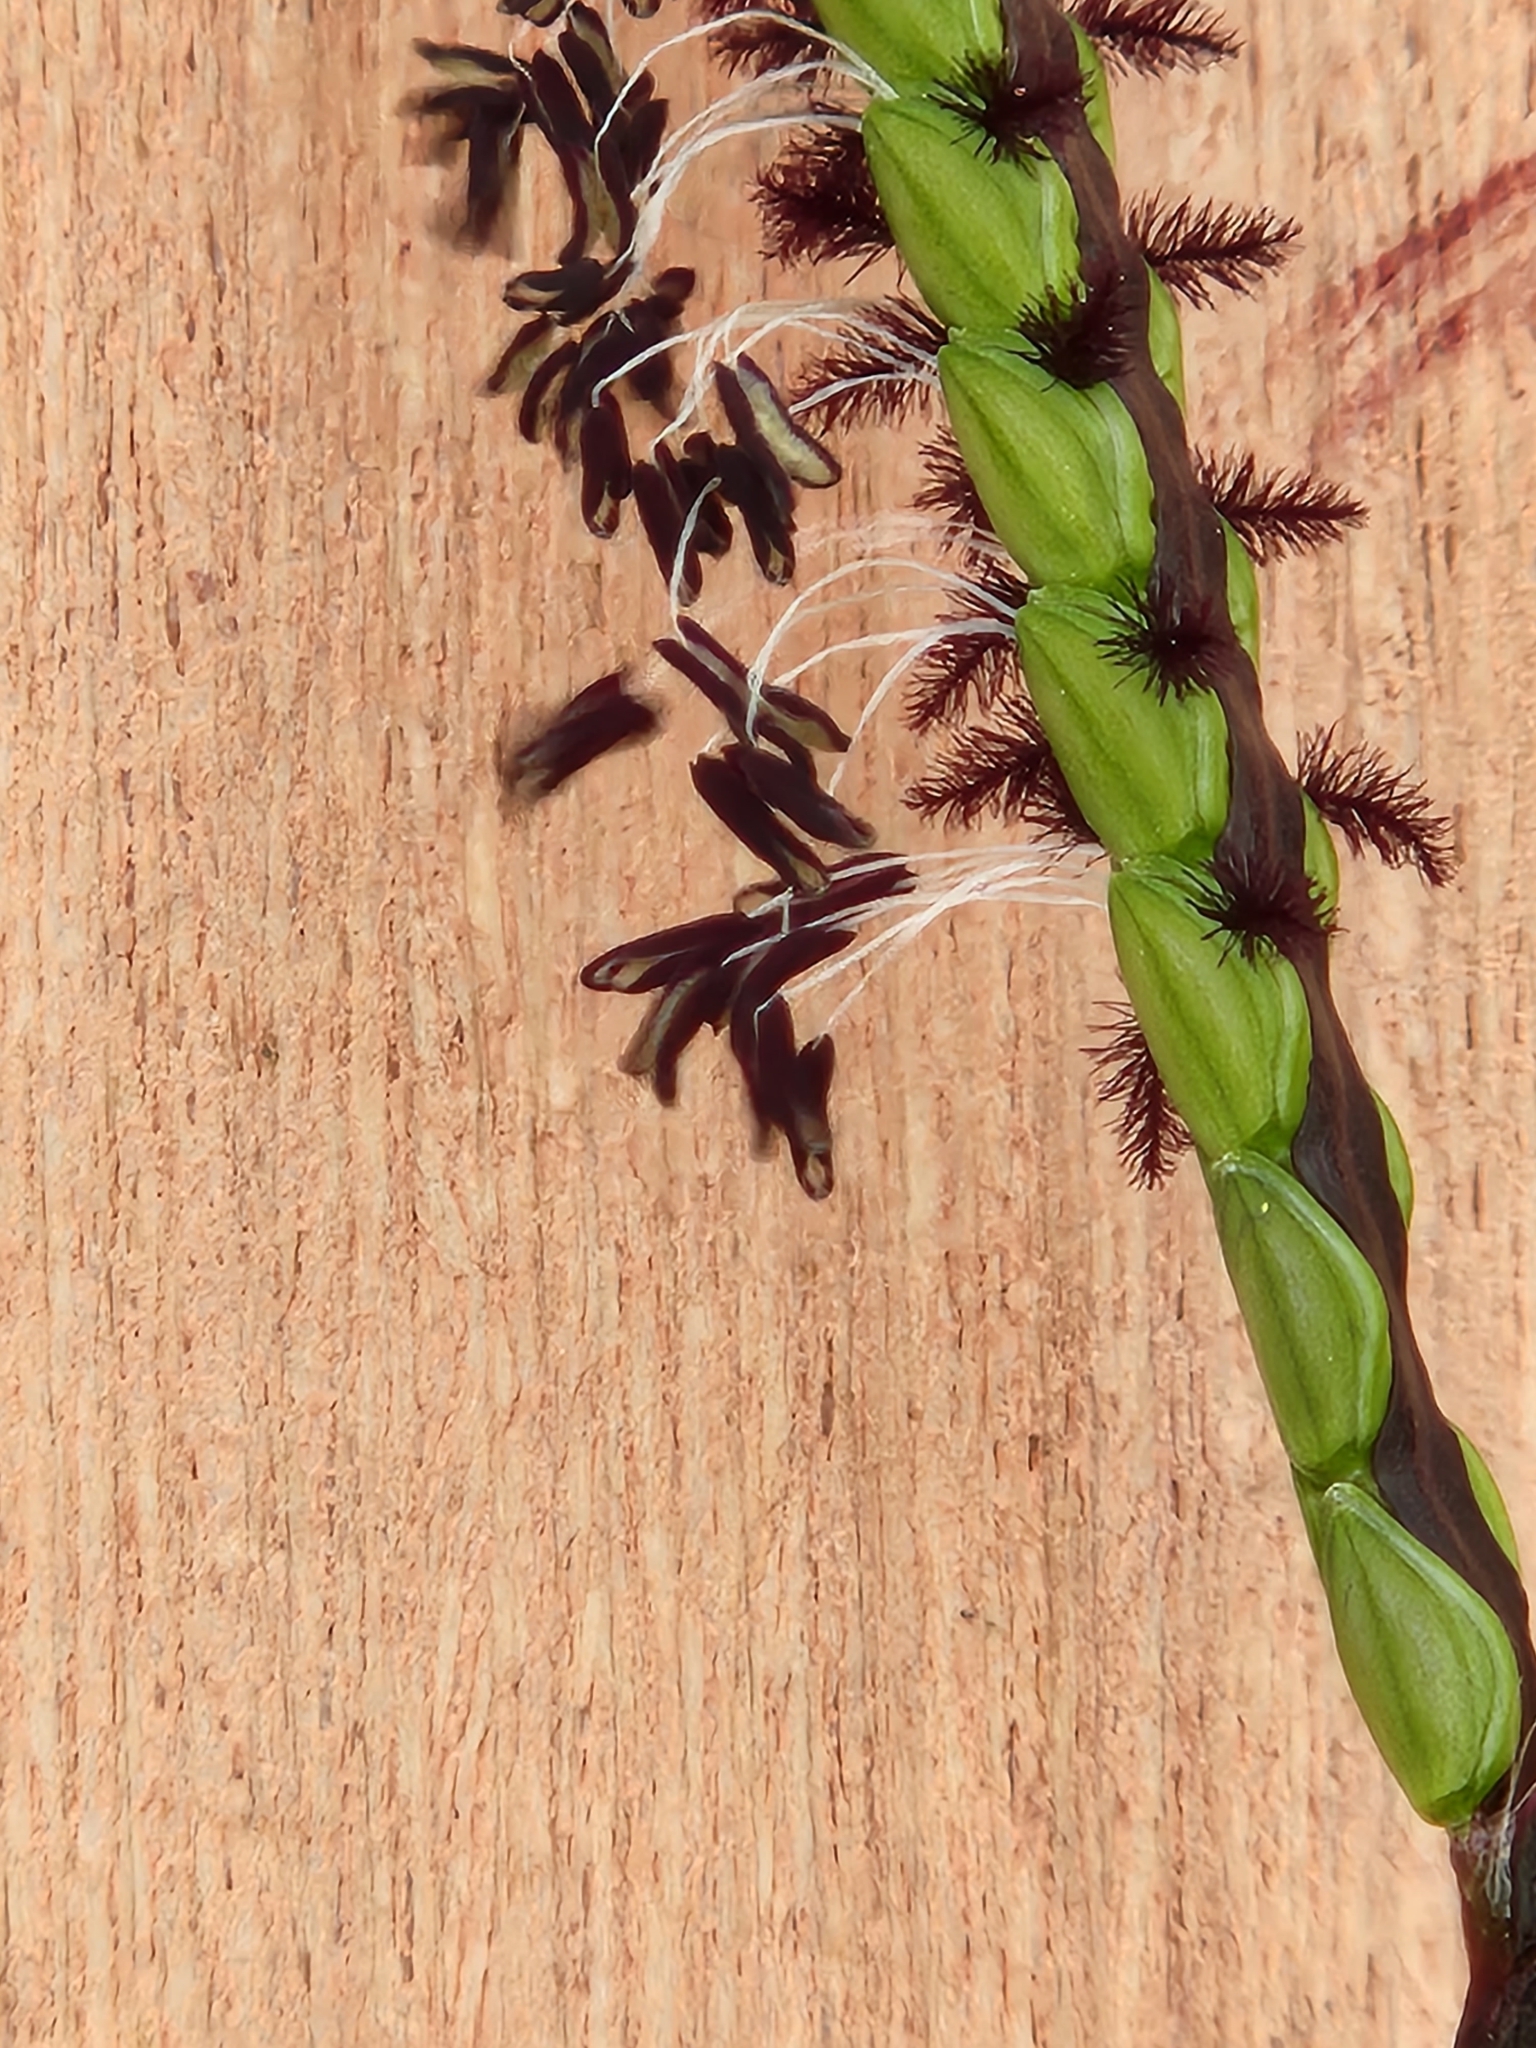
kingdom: Plantae
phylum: Tracheophyta
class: Liliopsida
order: Poales
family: Poaceae
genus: Paspalum
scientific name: Paspalum notatum
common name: Bahiagrass
